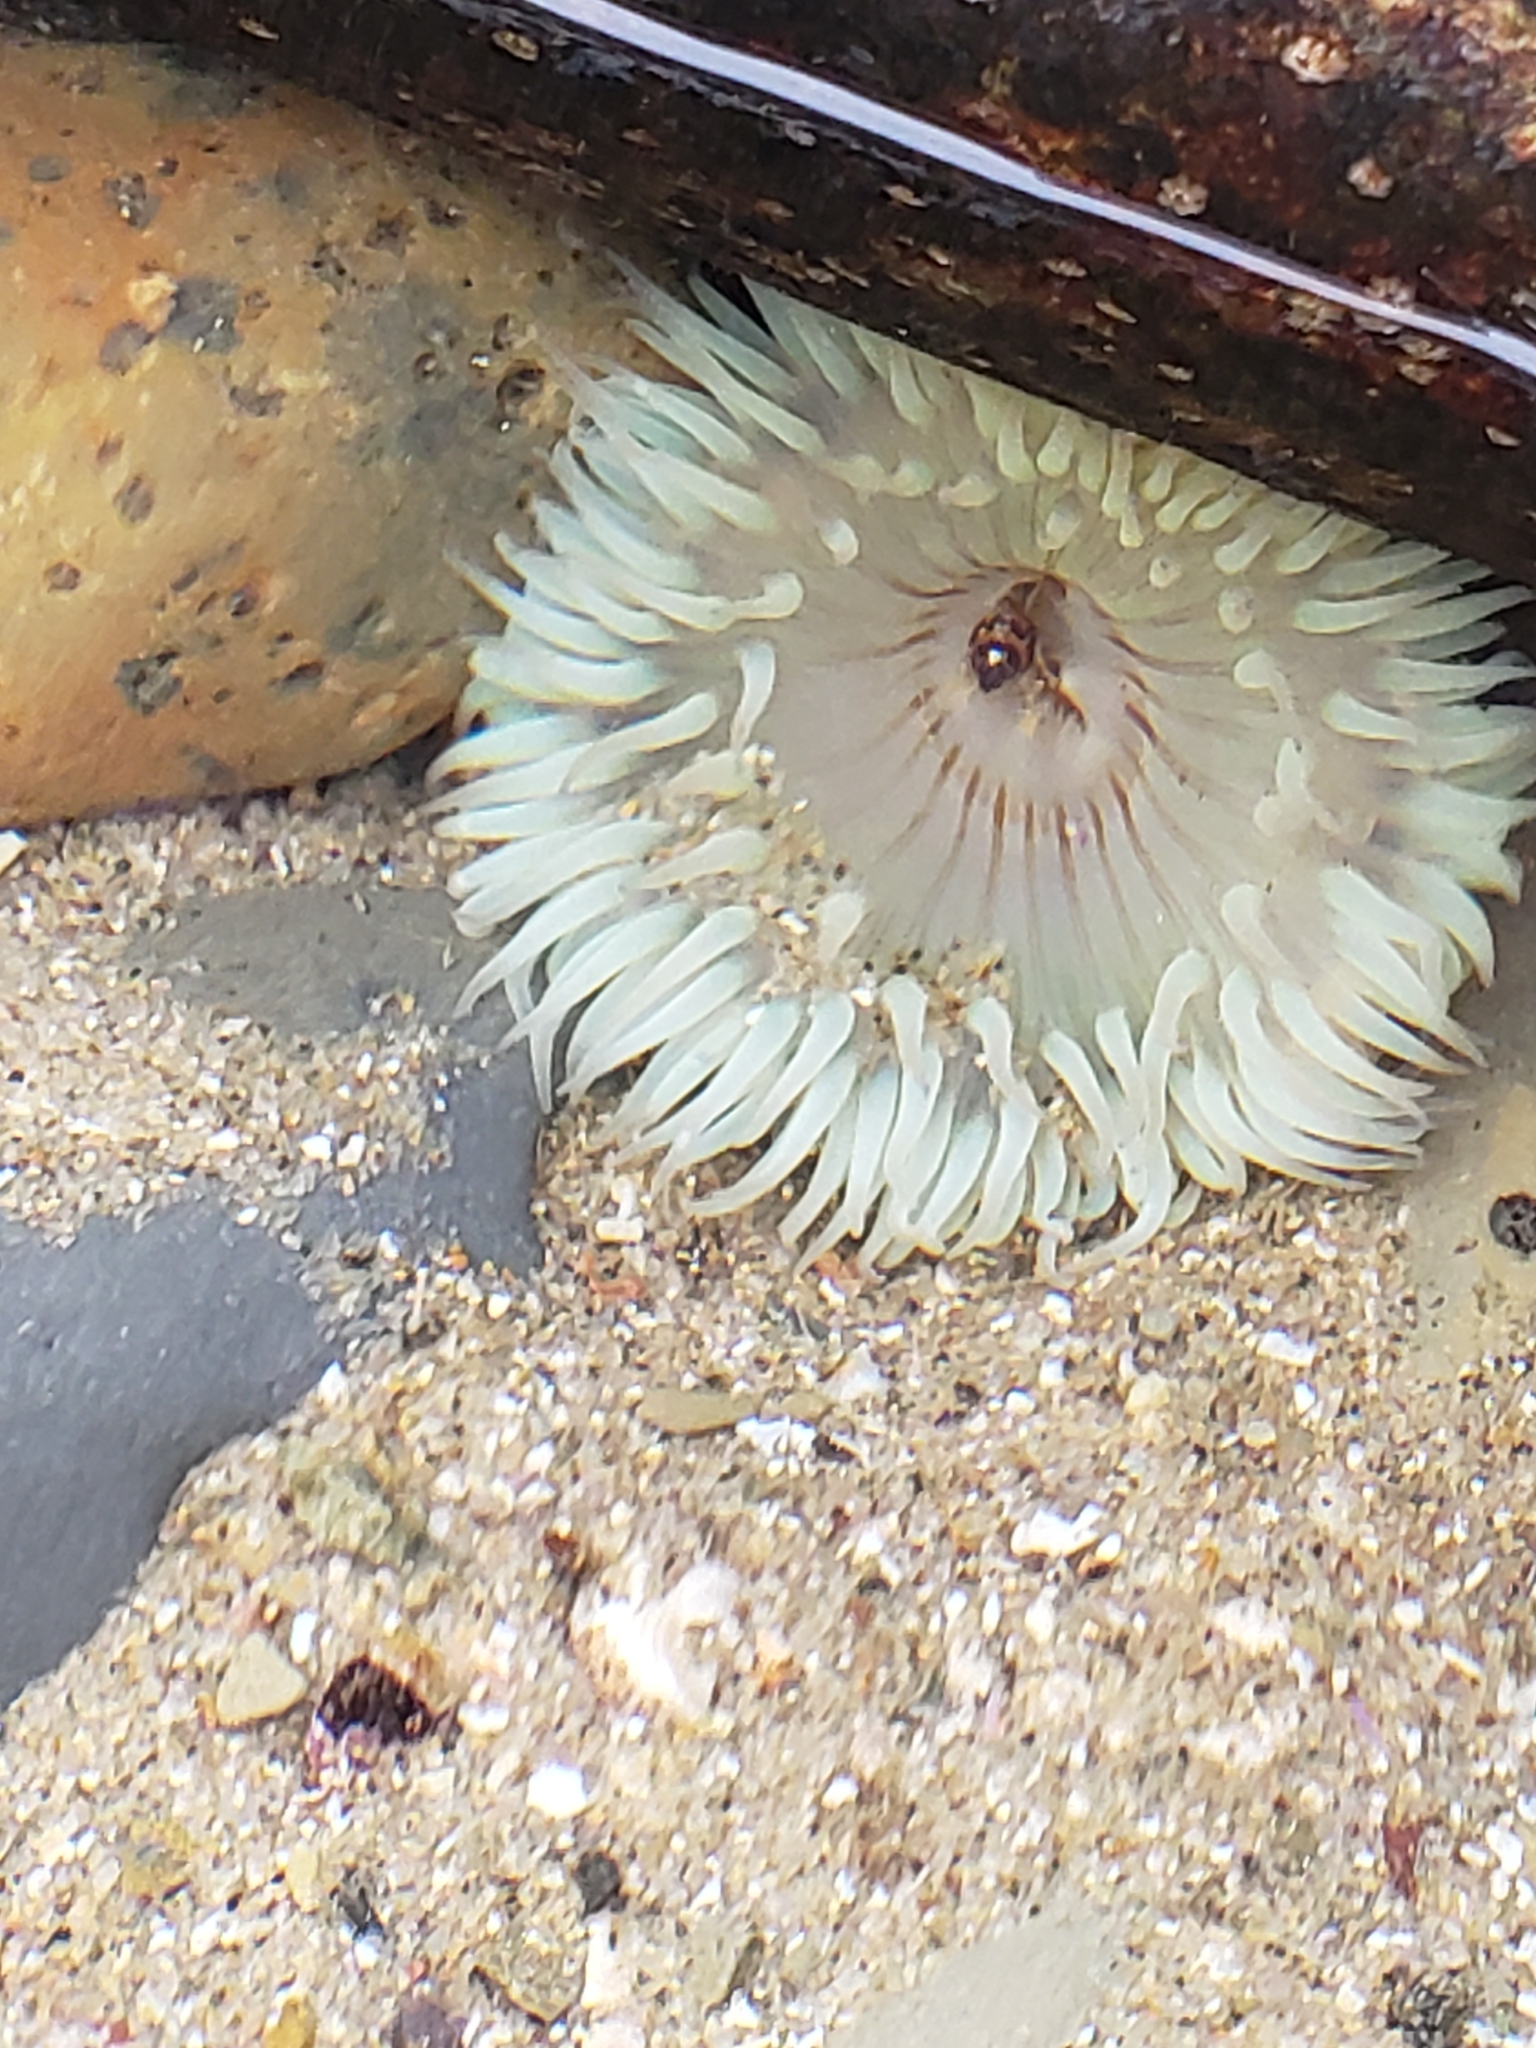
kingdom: Animalia
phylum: Cnidaria
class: Anthozoa
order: Actiniaria
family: Actiniidae
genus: Anthopleura
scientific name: Anthopleura sola
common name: Sun anemone
